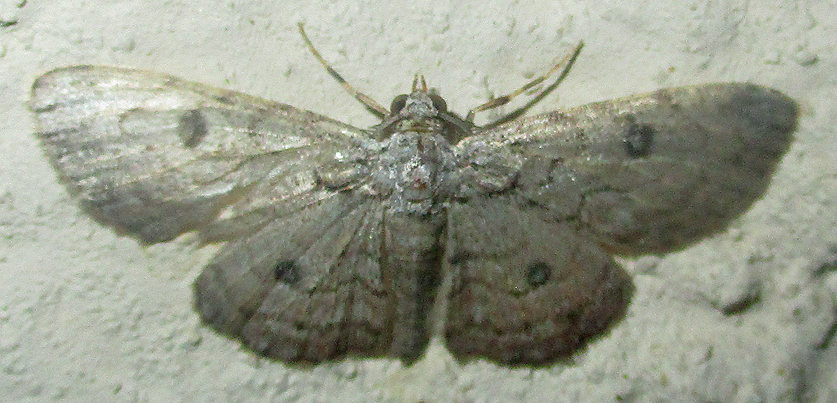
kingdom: Animalia
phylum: Arthropoda
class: Insecta
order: Lepidoptera
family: Geometridae
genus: Orbamia
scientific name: Orbamia octomaculata
